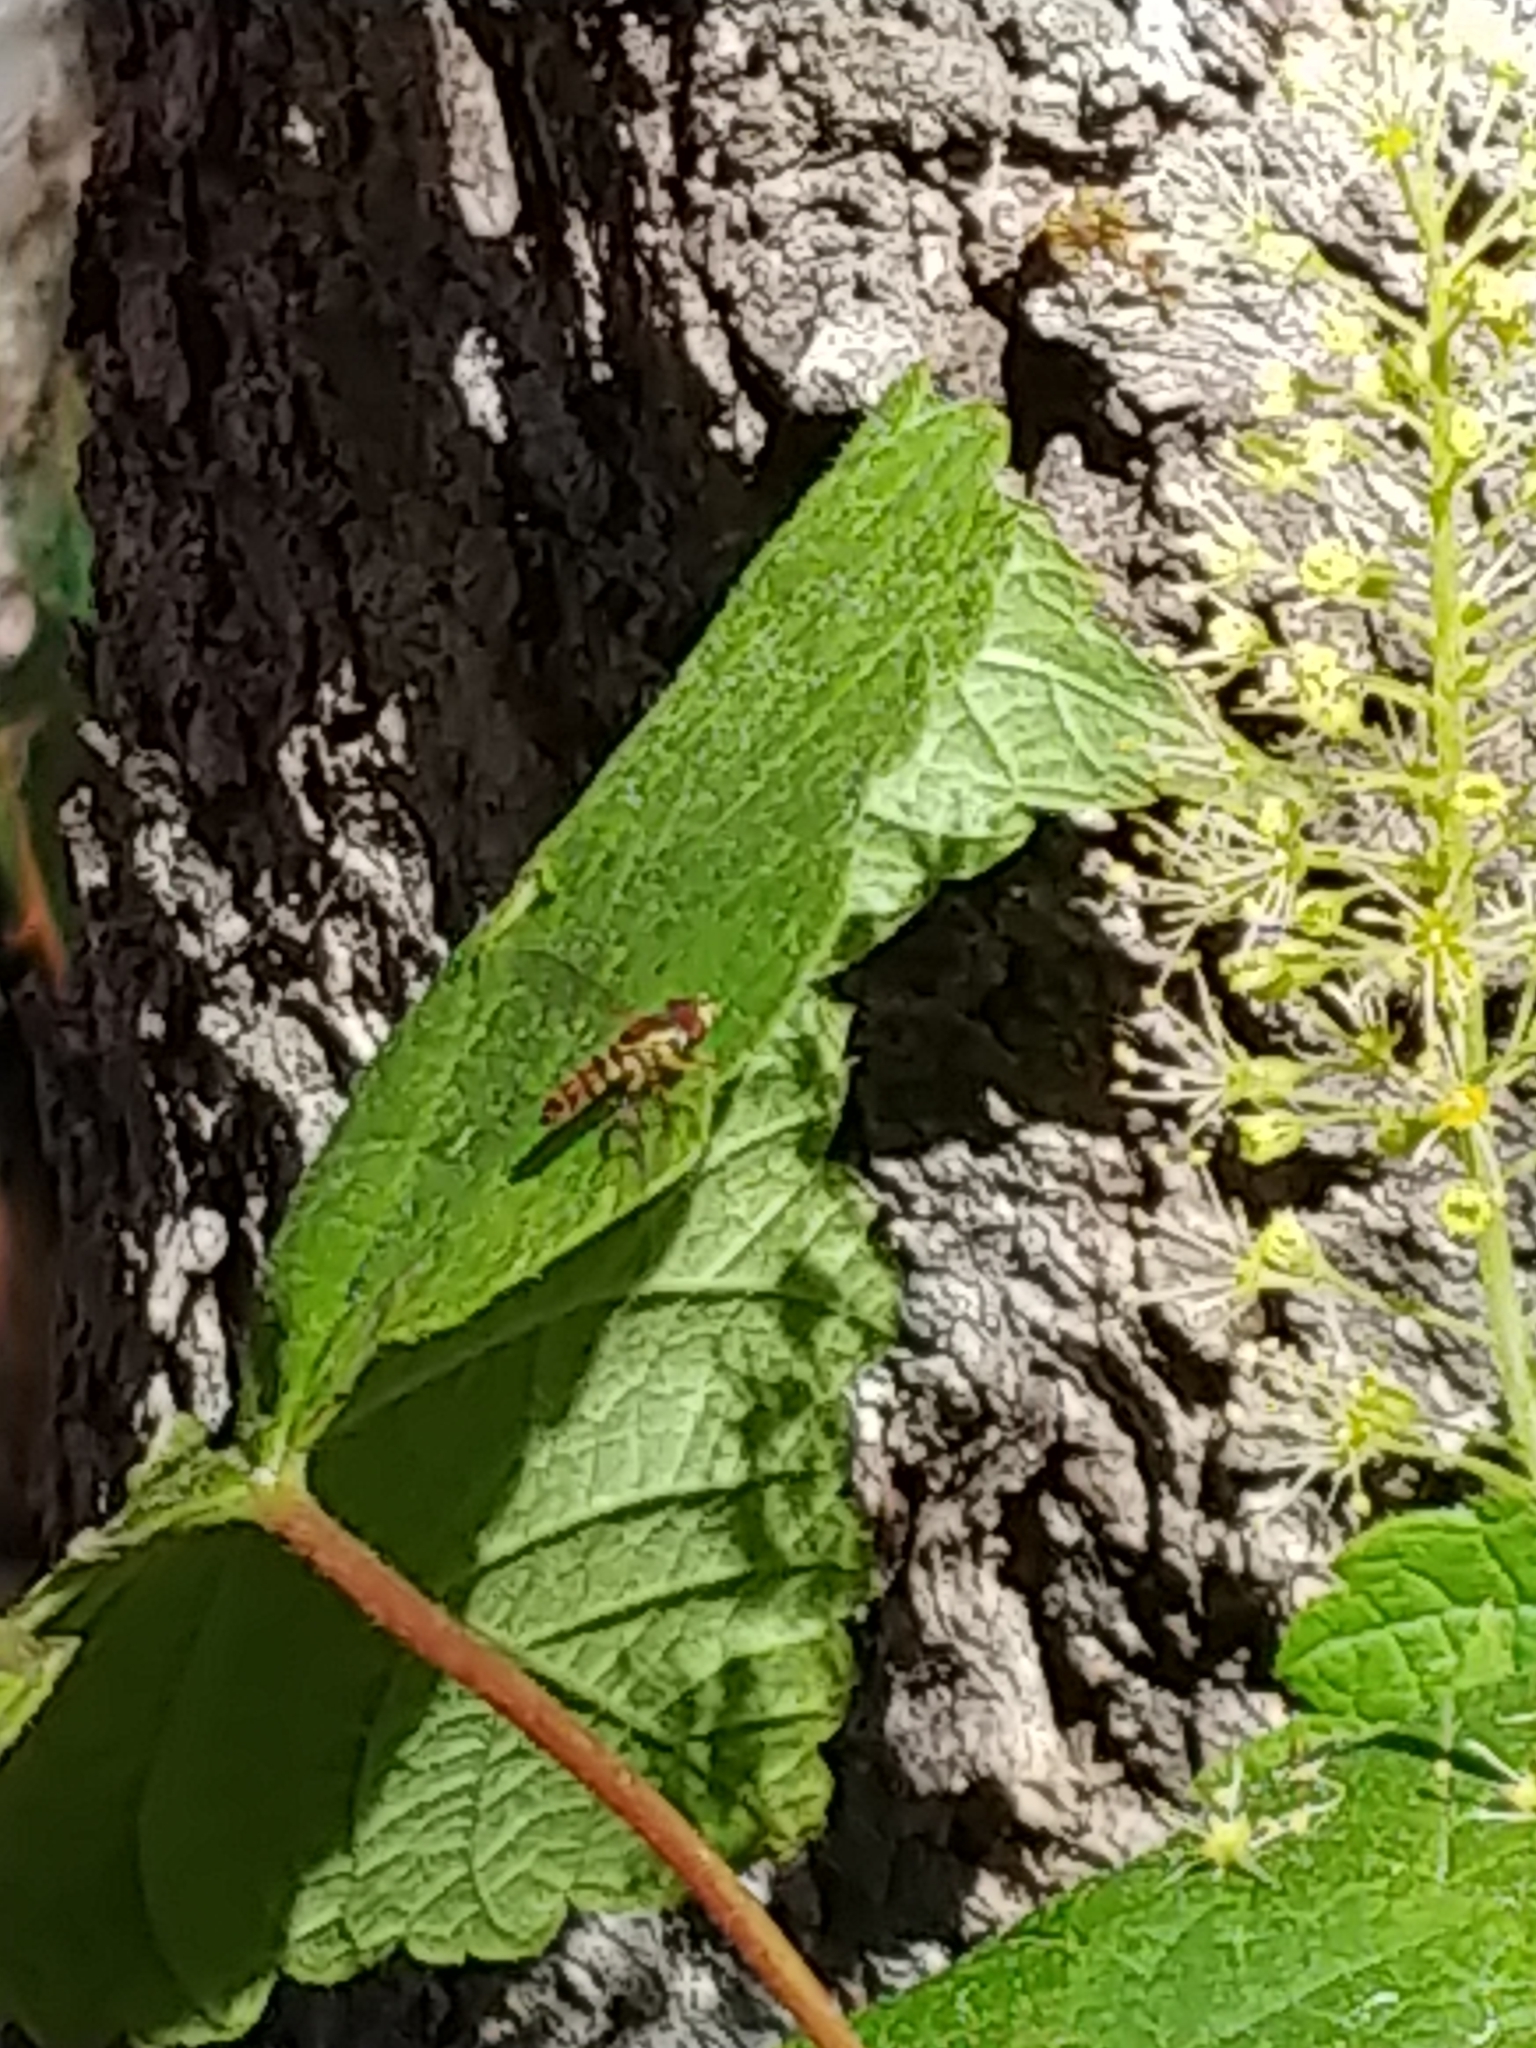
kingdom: Animalia
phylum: Arthropoda
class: Insecta
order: Diptera
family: Syrphidae
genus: Toxomerus
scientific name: Toxomerus geminatus
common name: Eastern calligrapher
